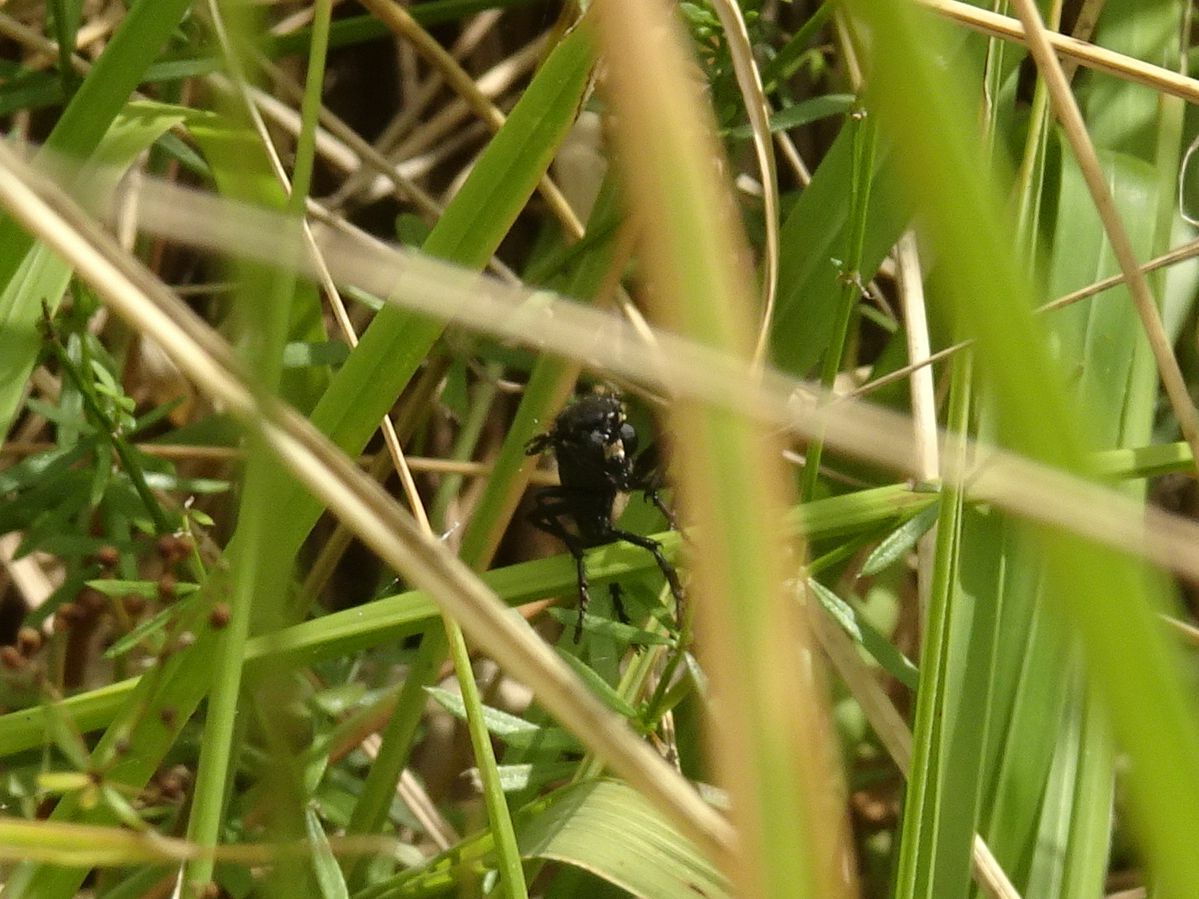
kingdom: Animalia
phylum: Arthropoda
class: Insecta
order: Diptera
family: Asilidae
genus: Dasypogon
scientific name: Dasypogon diadema
